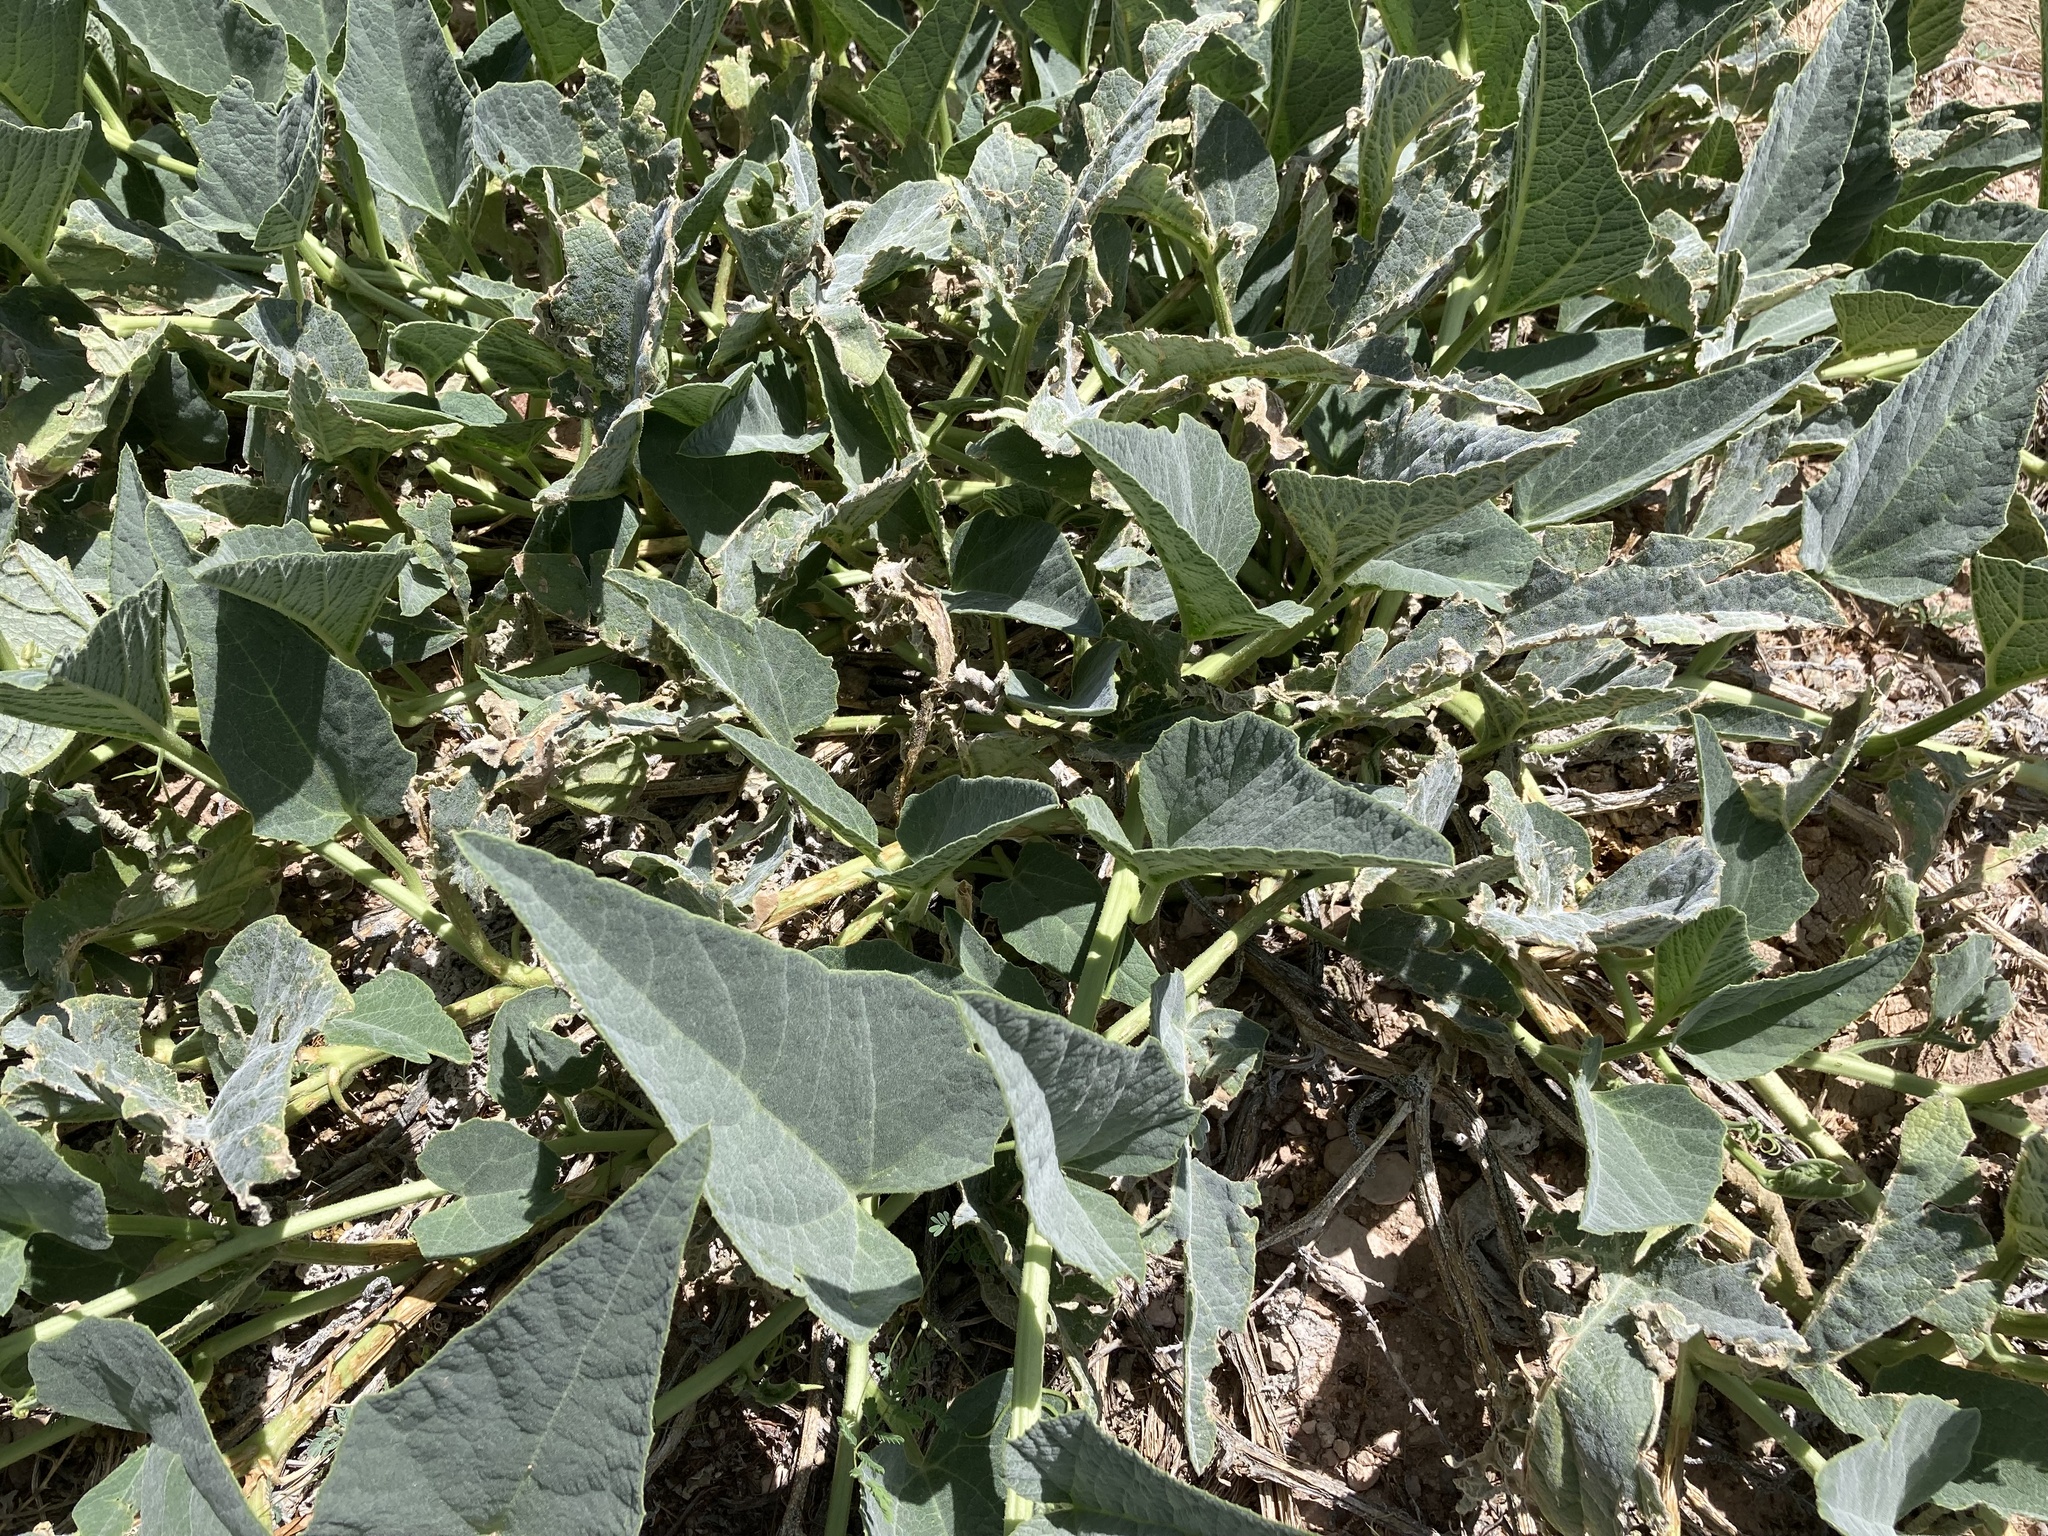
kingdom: Plantae
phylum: Tracheophyta
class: Magnoliopsida
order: Cucurbitales
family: Cucurbitaceae
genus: Cucurbita
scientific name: Cucurbita foetidissima
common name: Buffalo gourd
